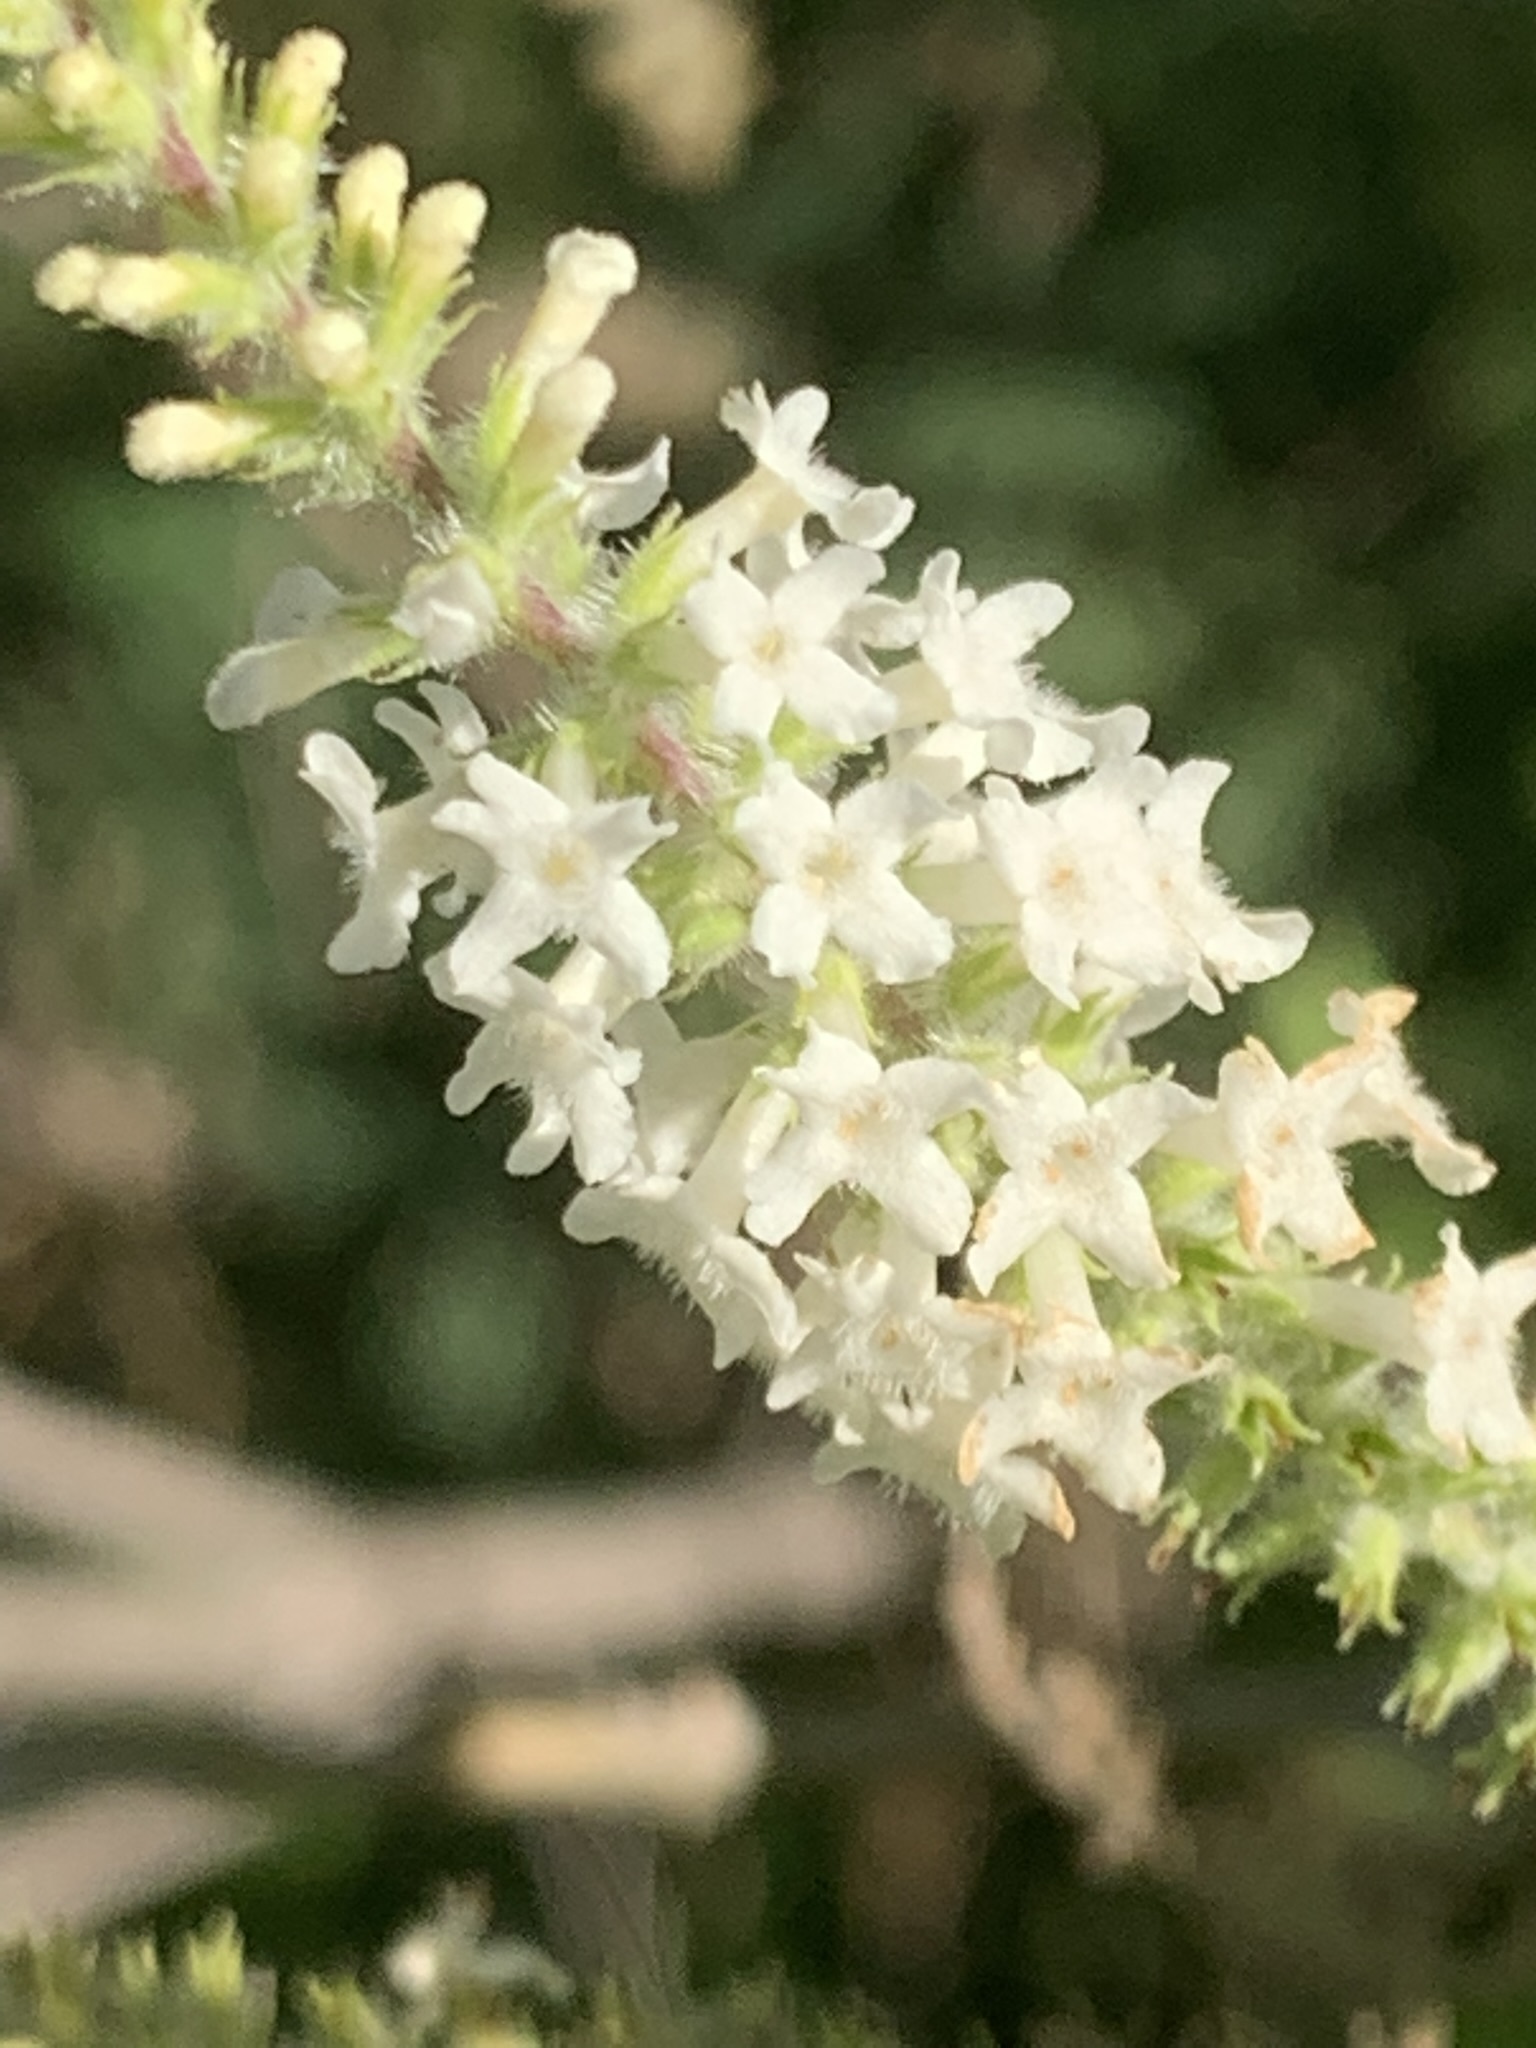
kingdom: Plantae
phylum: Tracheophyta
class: Magnoliopsida
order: Lamiales
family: Verbenaceae
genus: Aloysia
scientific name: Aloysia virgata
